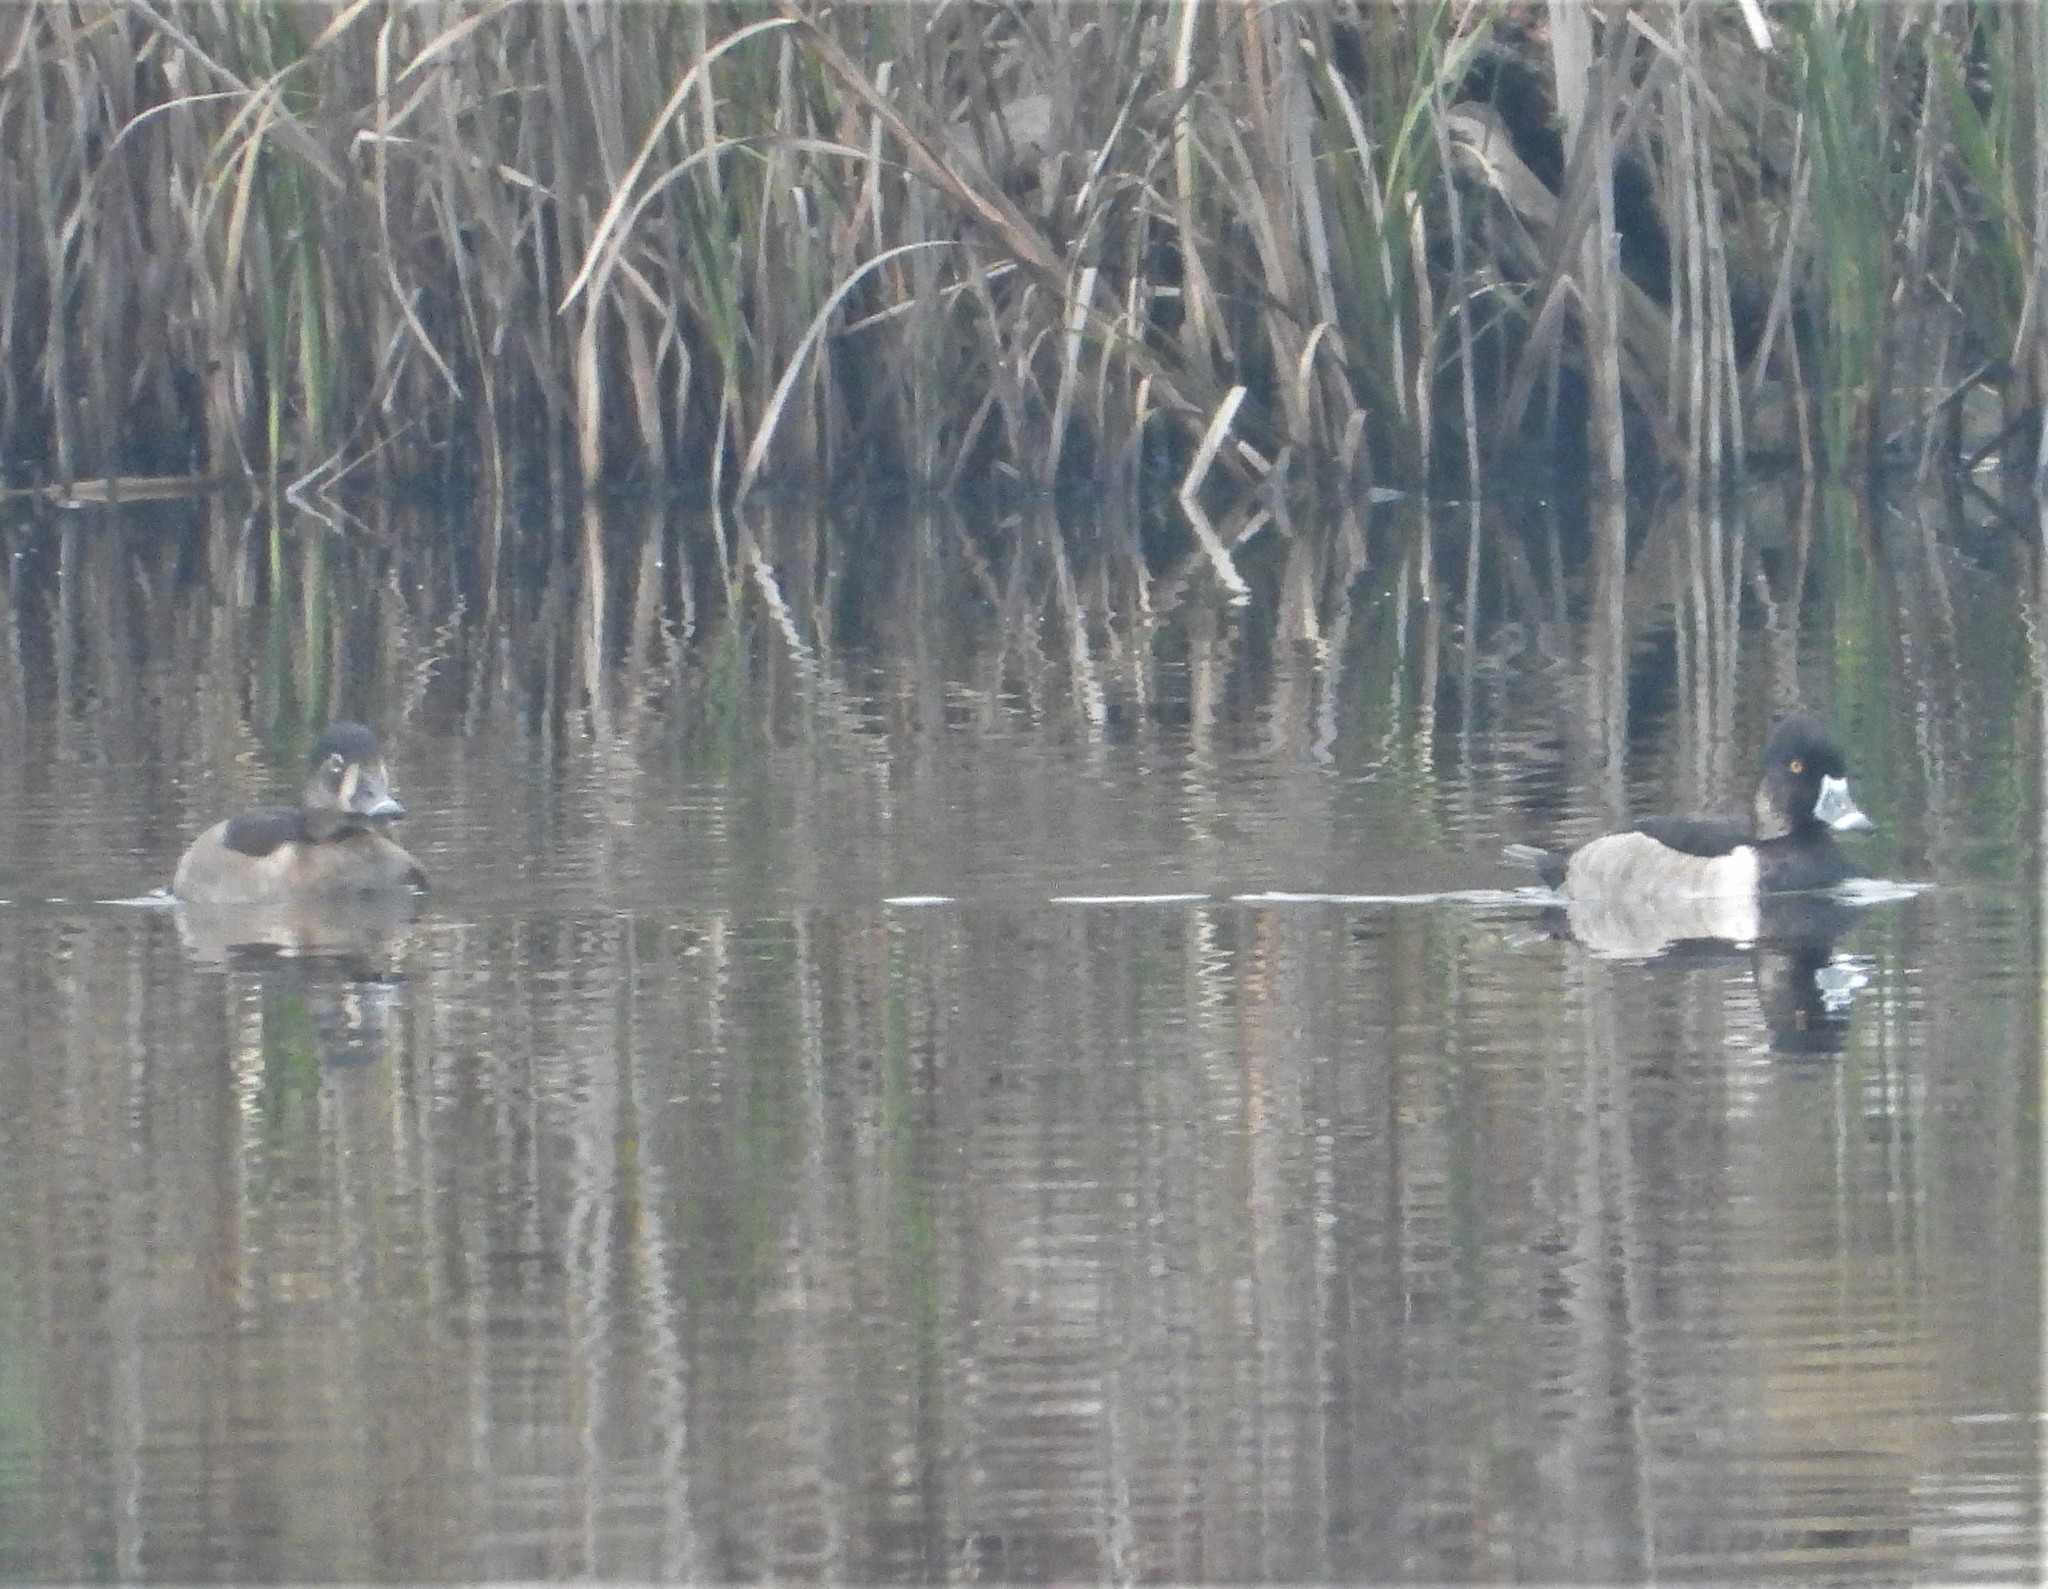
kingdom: Animalia
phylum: Chordata
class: Aves
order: Anseriformes
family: Anatidae
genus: Aythya
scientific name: Aythya collaris
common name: Ring-necked duck
